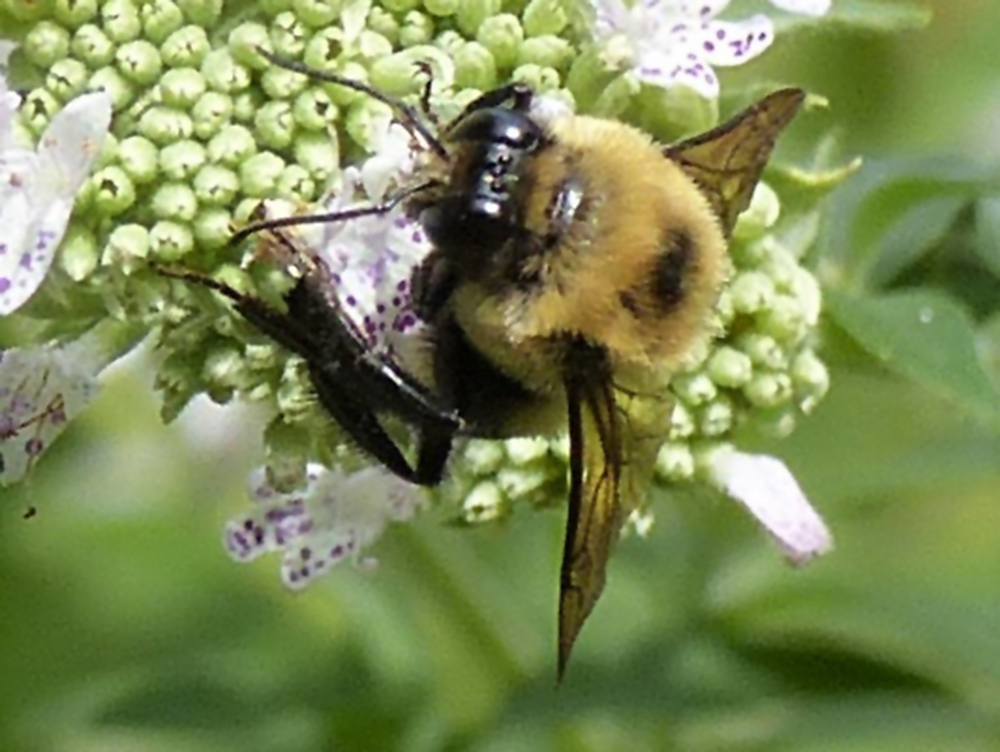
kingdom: Animalia
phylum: Arthropoda
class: Insecta
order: Hymenoptera
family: Apidae
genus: Bombus
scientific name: Bombus griseocollis
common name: Brown-belted bumble bee
